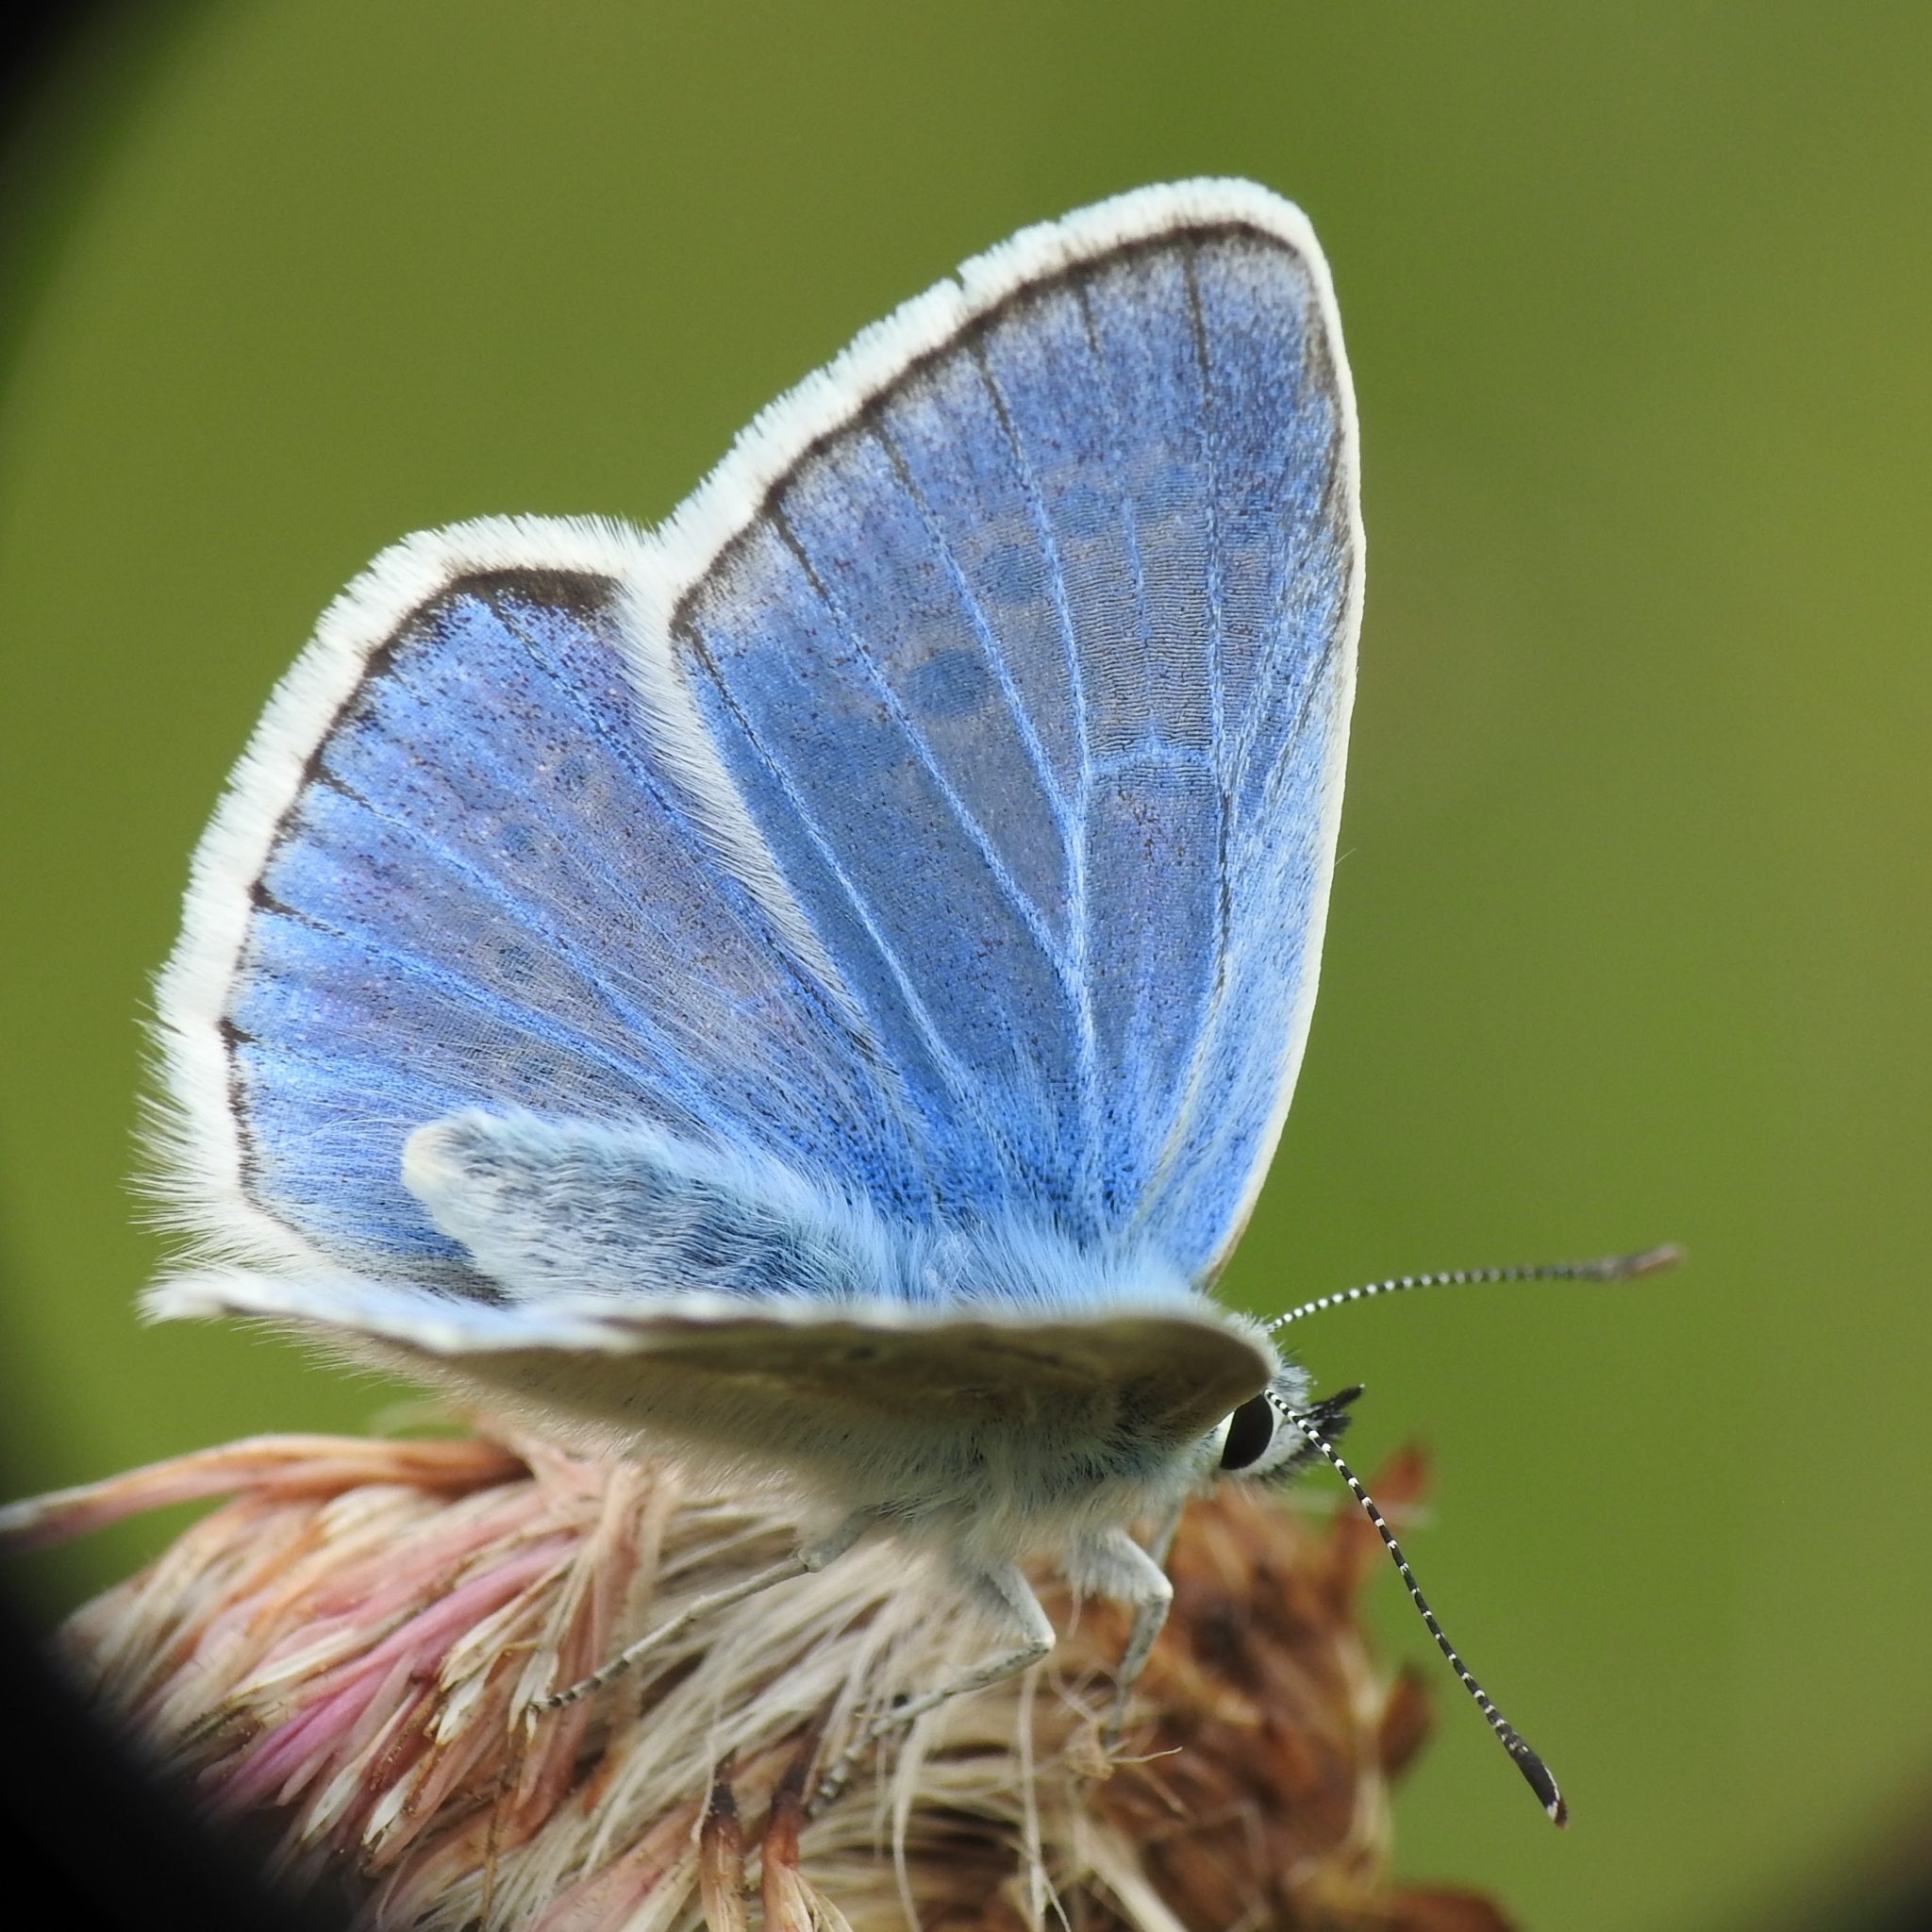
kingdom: Animalia
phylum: Arthropoda
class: Insecta
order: Lepidoptera
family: Lycaenidae
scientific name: Lycaenidae
